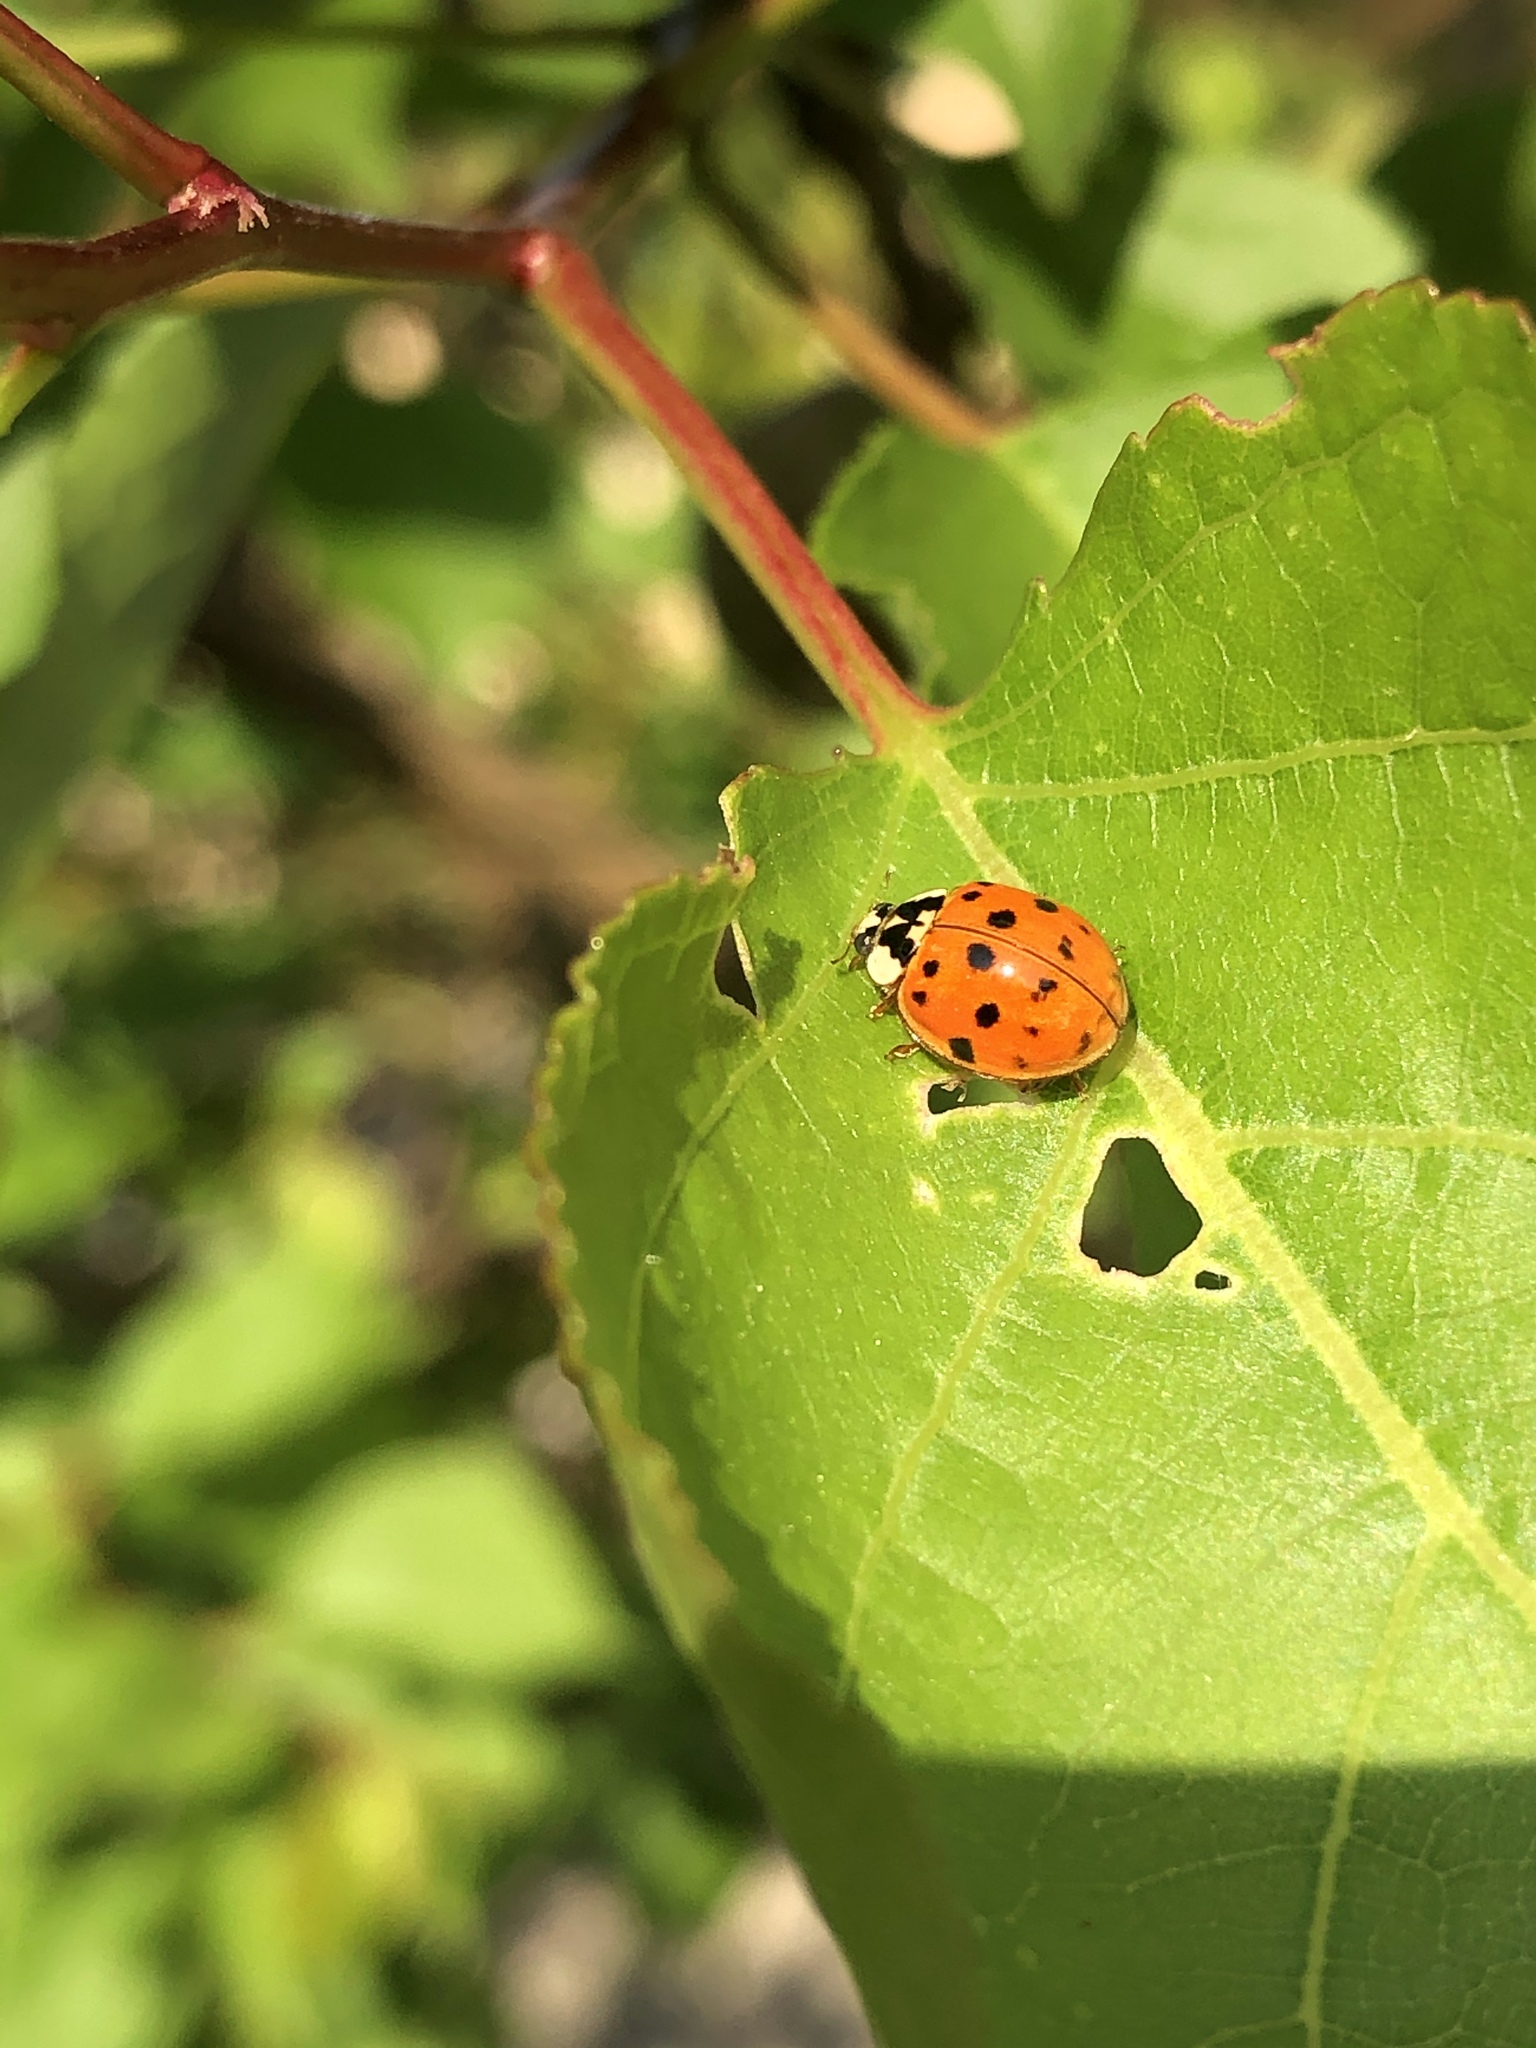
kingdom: Animalia
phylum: Arthropoda
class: Insecta
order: Coleoptera
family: Coccinellidae
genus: Harmonia
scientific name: Harmonia axyridis
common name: Harlequin ladybird
